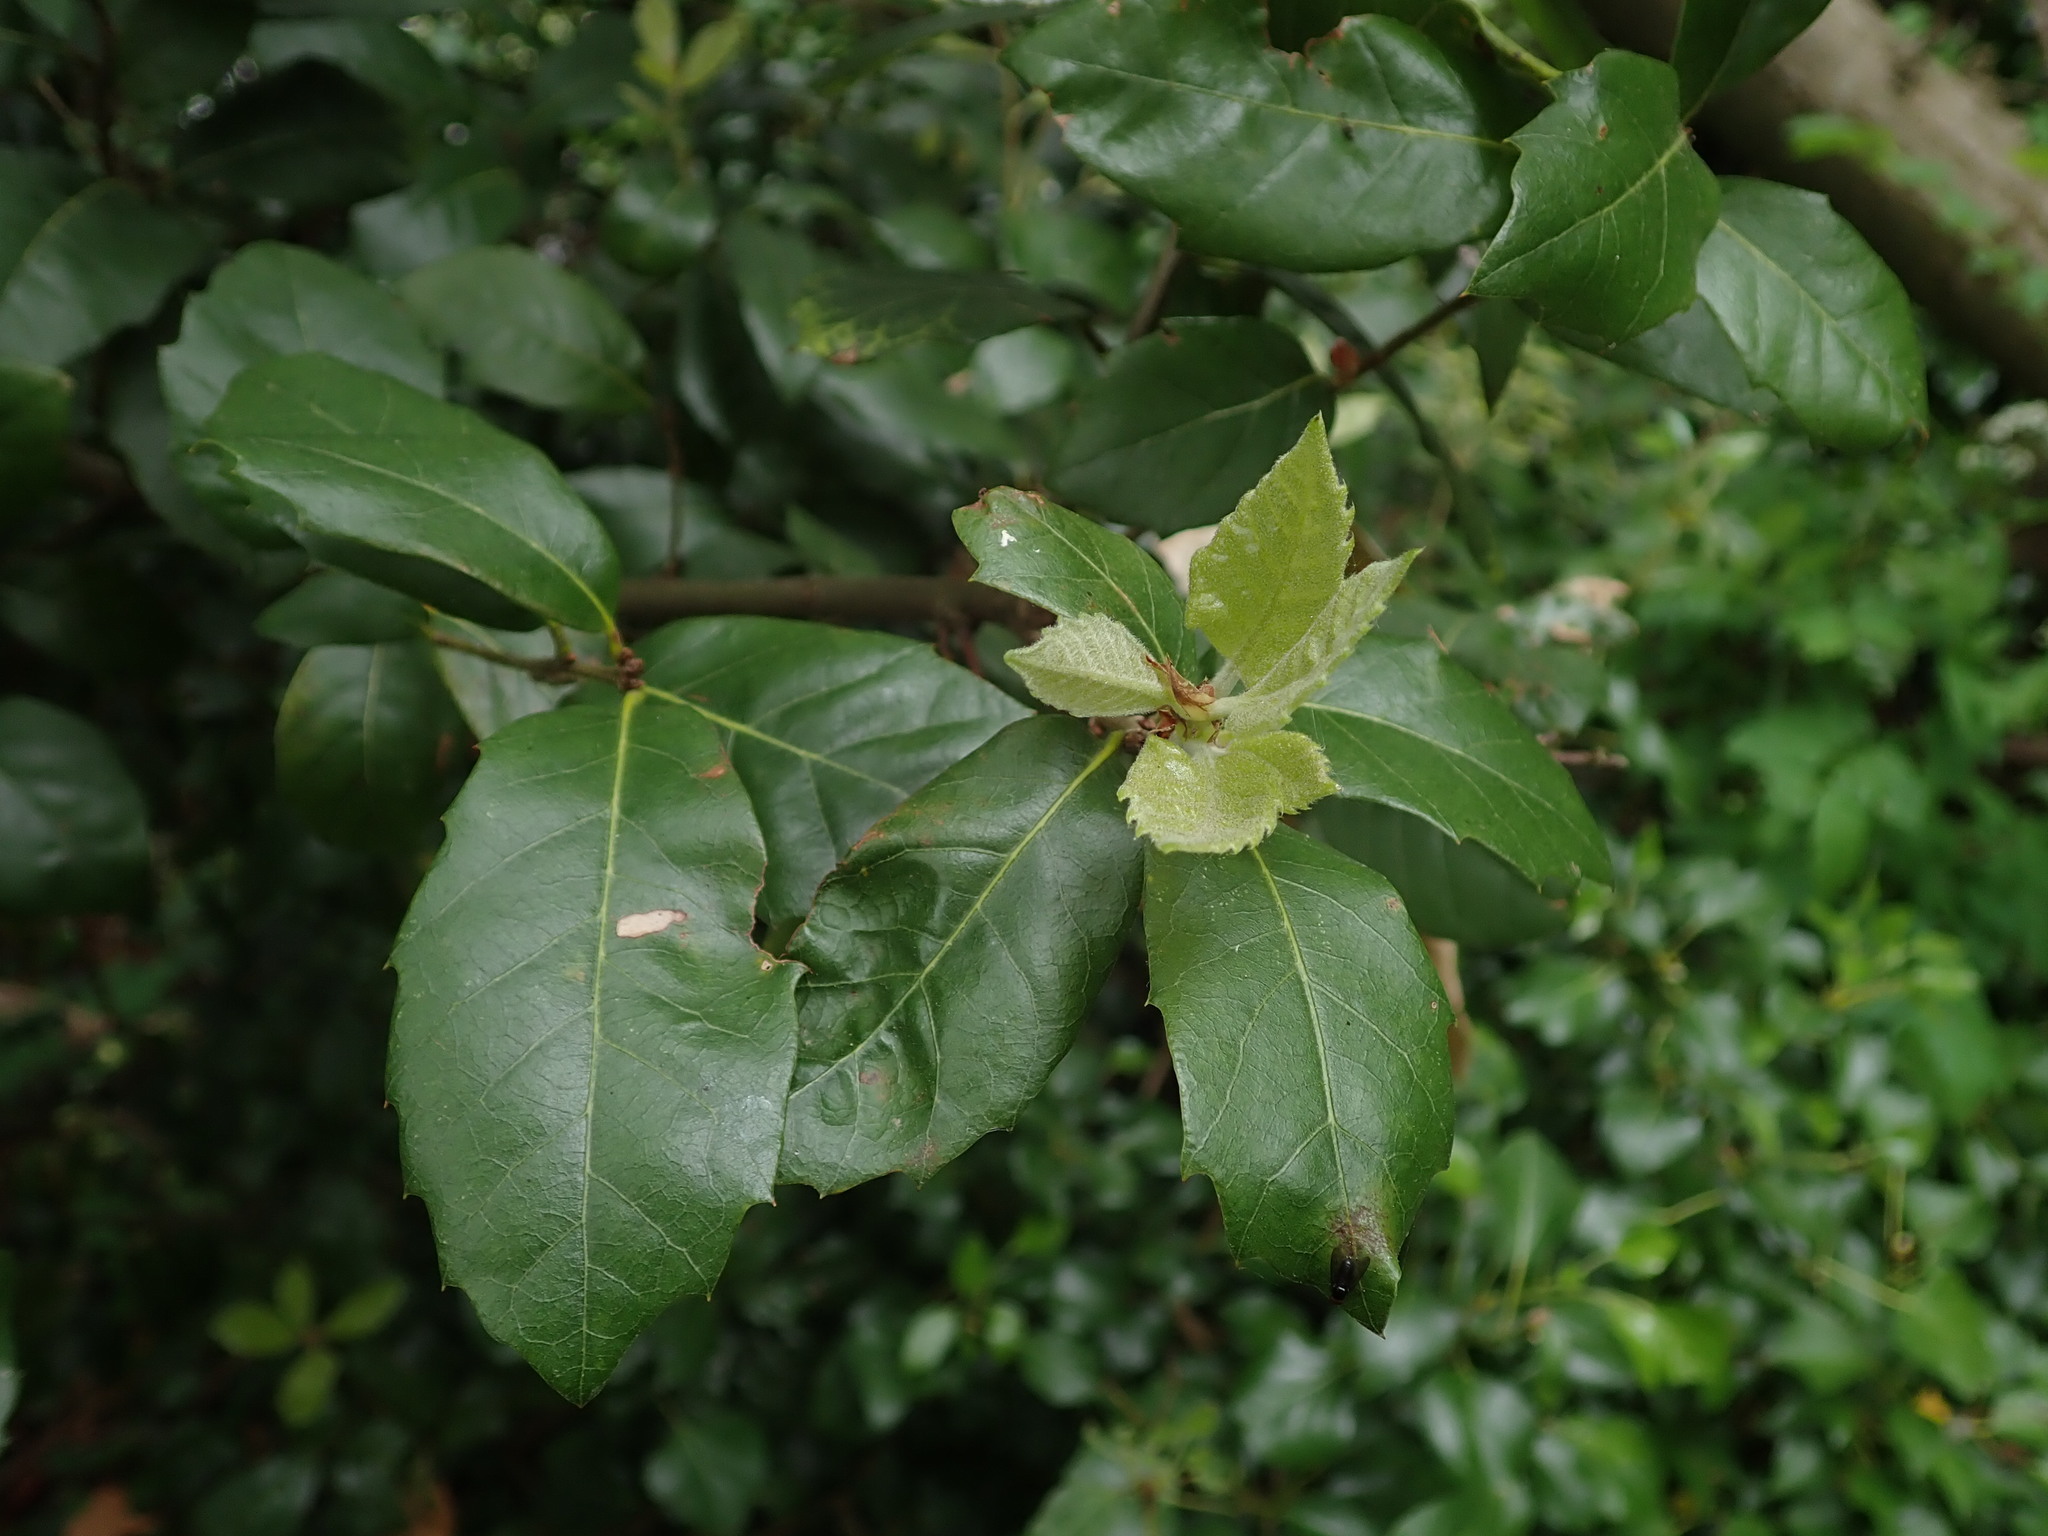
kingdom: Plantae
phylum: Tracheophyta
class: Magnoliopsida
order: Fagales
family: Fagaceae
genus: Quercus
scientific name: Quercus ilex
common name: Evergreen oak
